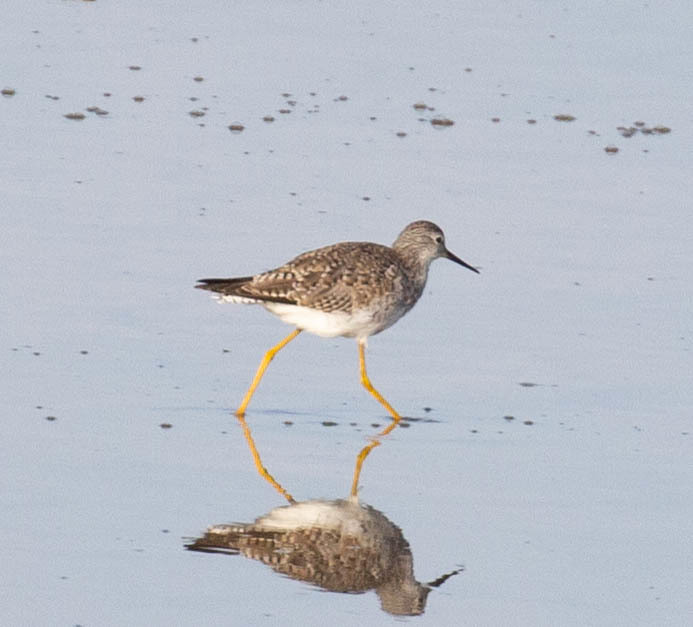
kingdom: Animalia
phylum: Chordata
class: Aves
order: Charadriiformes
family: Scolopacidae
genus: Tringa
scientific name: Tringa flavipes
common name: Lesser yellowlegs
